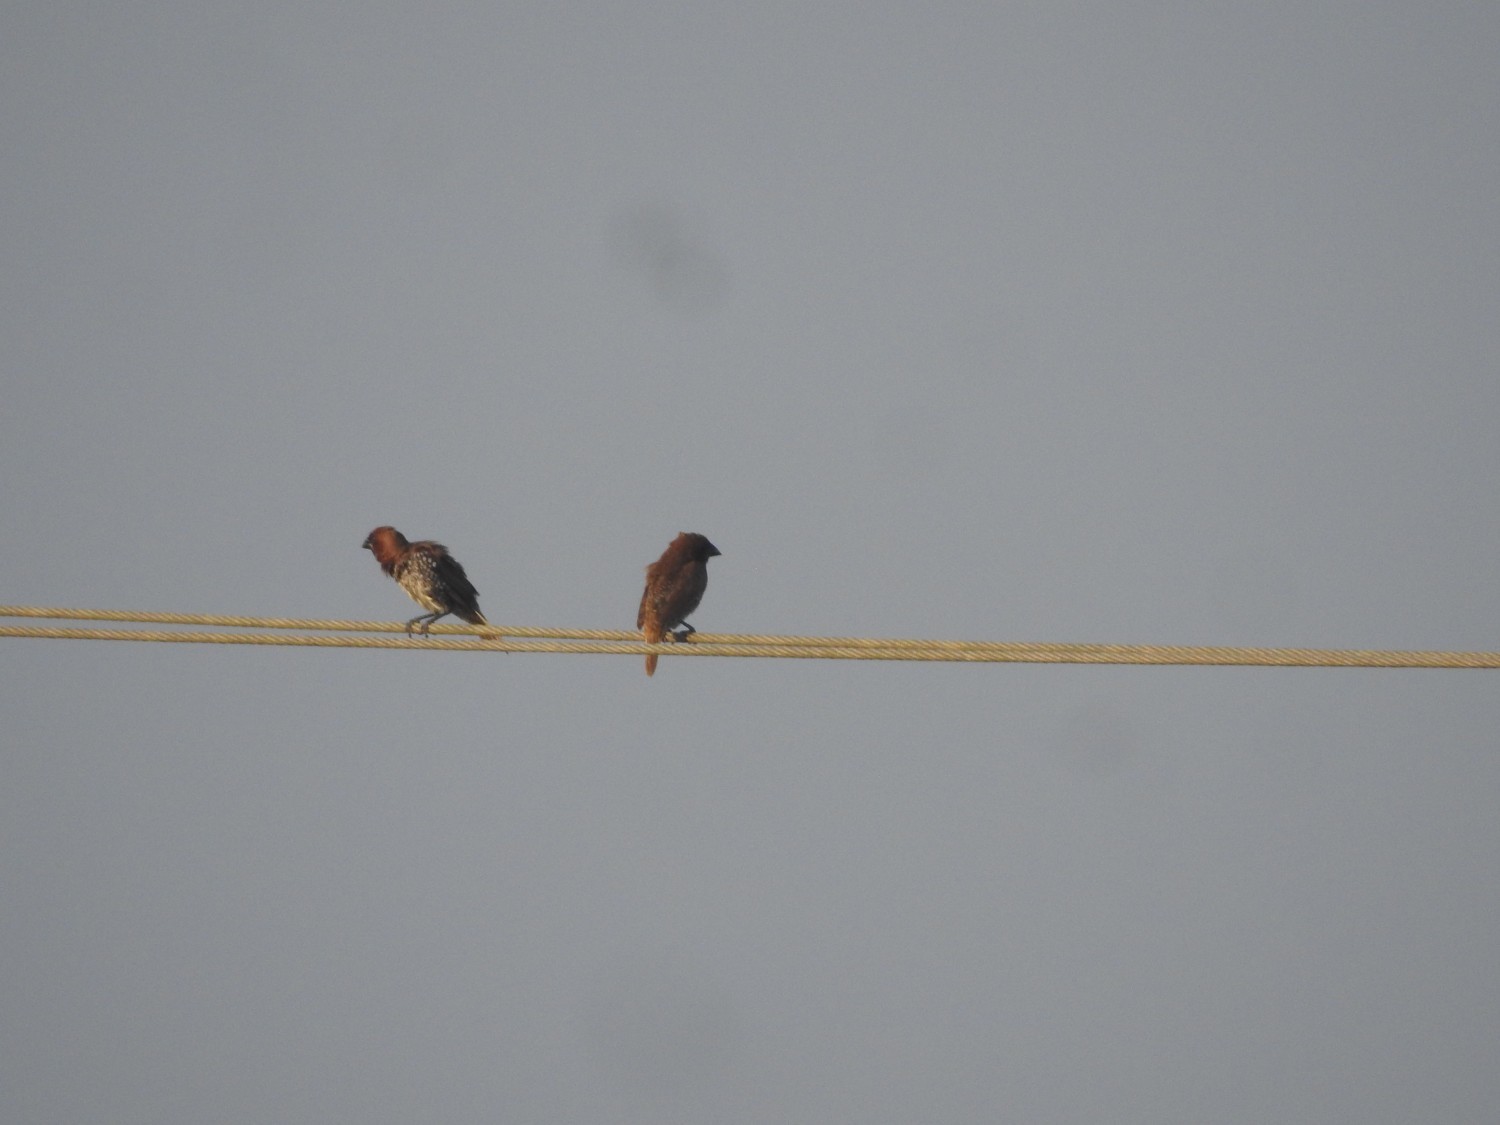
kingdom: Animalia
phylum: Chordata
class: Aves
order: Passeriformes
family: Estrildidae
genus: Lonchura
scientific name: Lonchura punctulata
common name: Scaly-breasted munia
